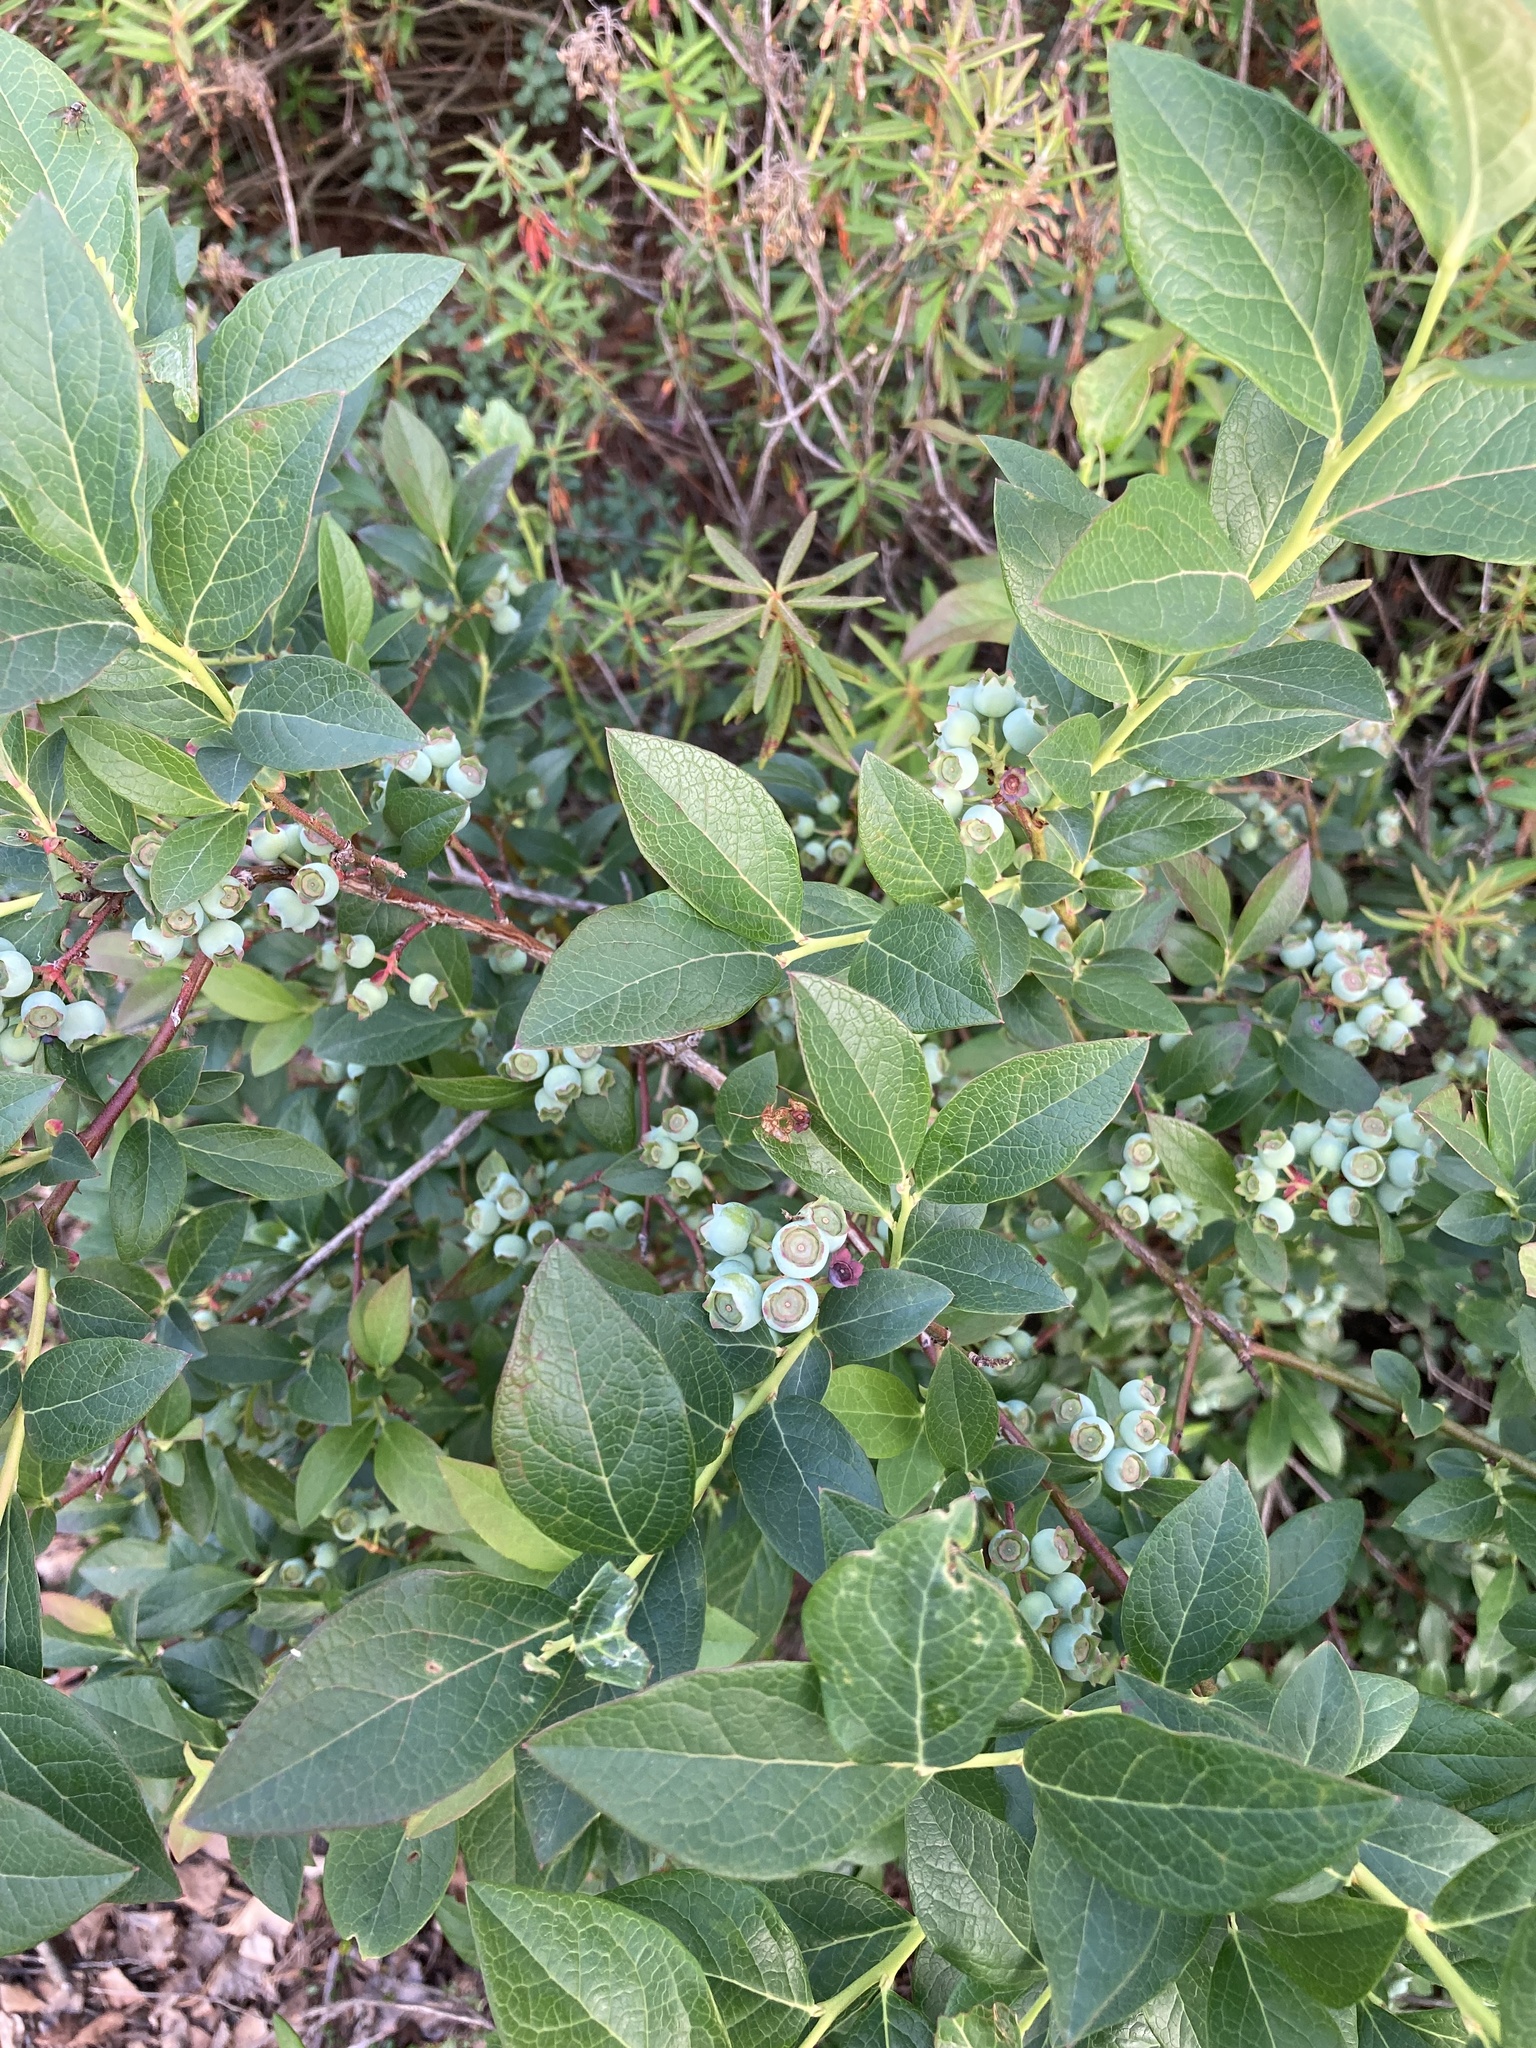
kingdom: Plantae
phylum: Tracheophyta
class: Magnoliopsida
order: Ericales
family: Ericaceae
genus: Vaccinium
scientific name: Vaccinium corymbosum
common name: Blueberry
